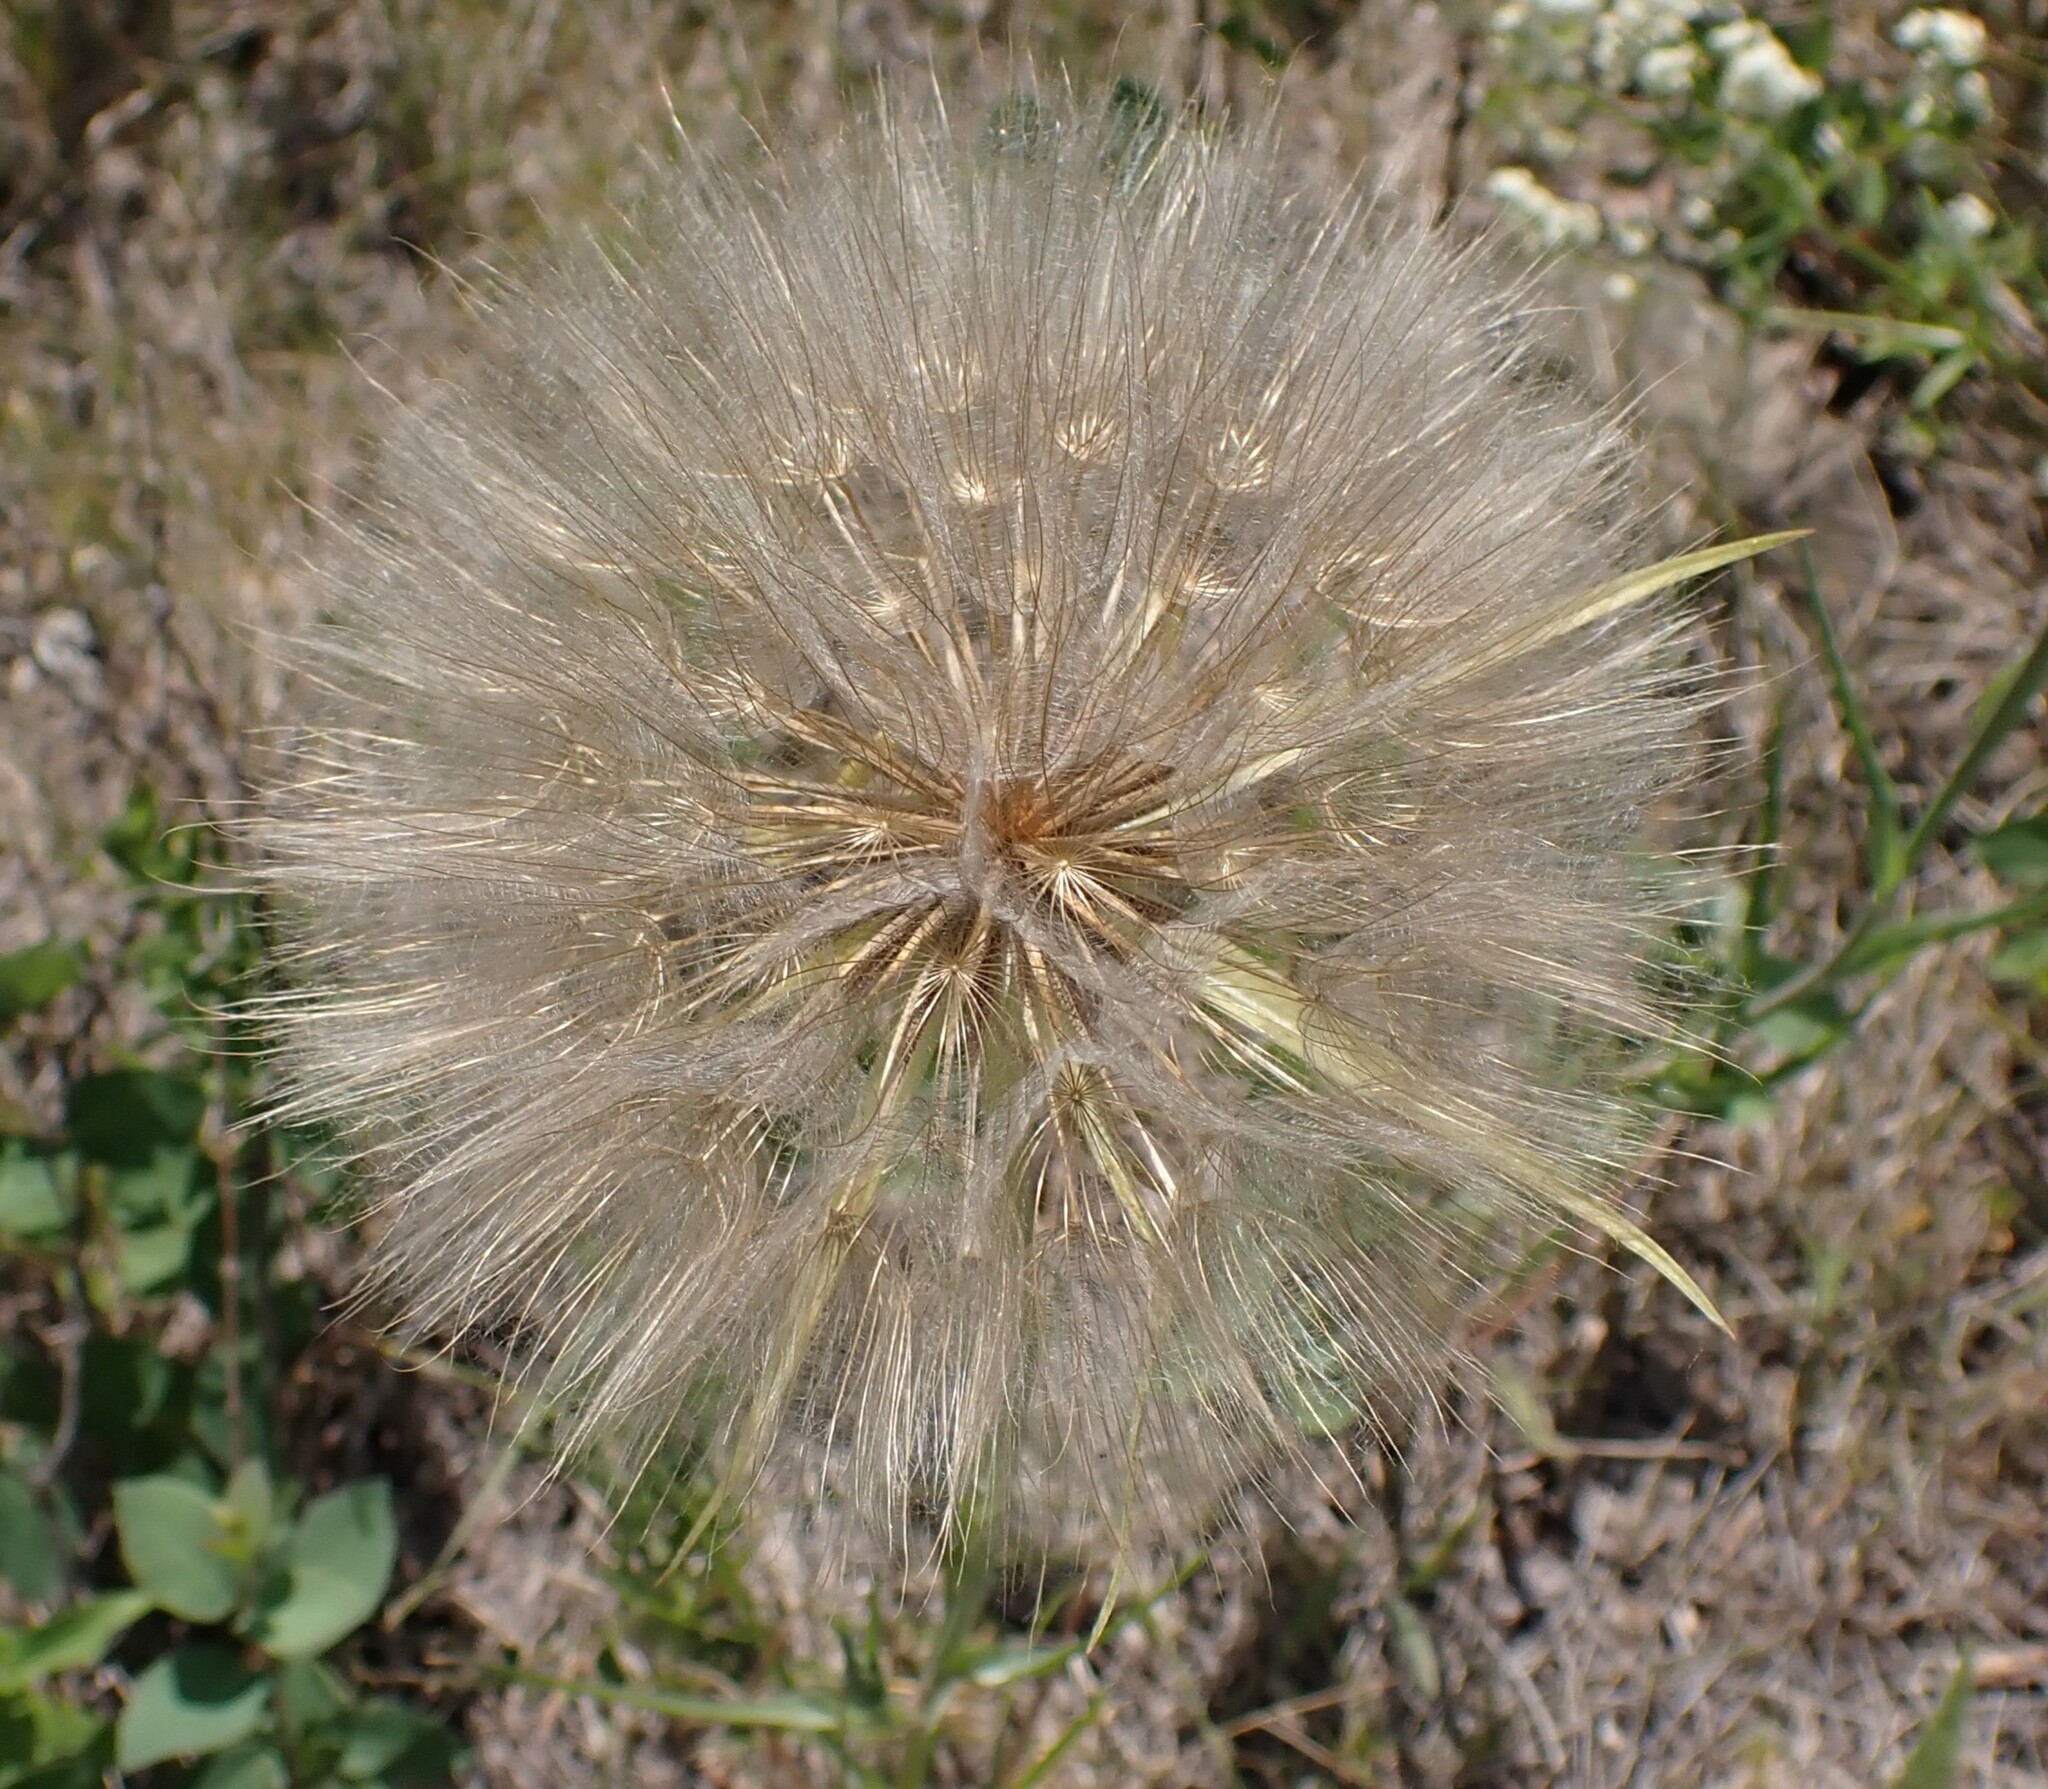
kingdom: Plantae
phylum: Tracheophyta
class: Magnoliopsida
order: Asterales
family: Asteraceae
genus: Tragopogon
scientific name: Tragopogon dubius
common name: Yellow salsify
